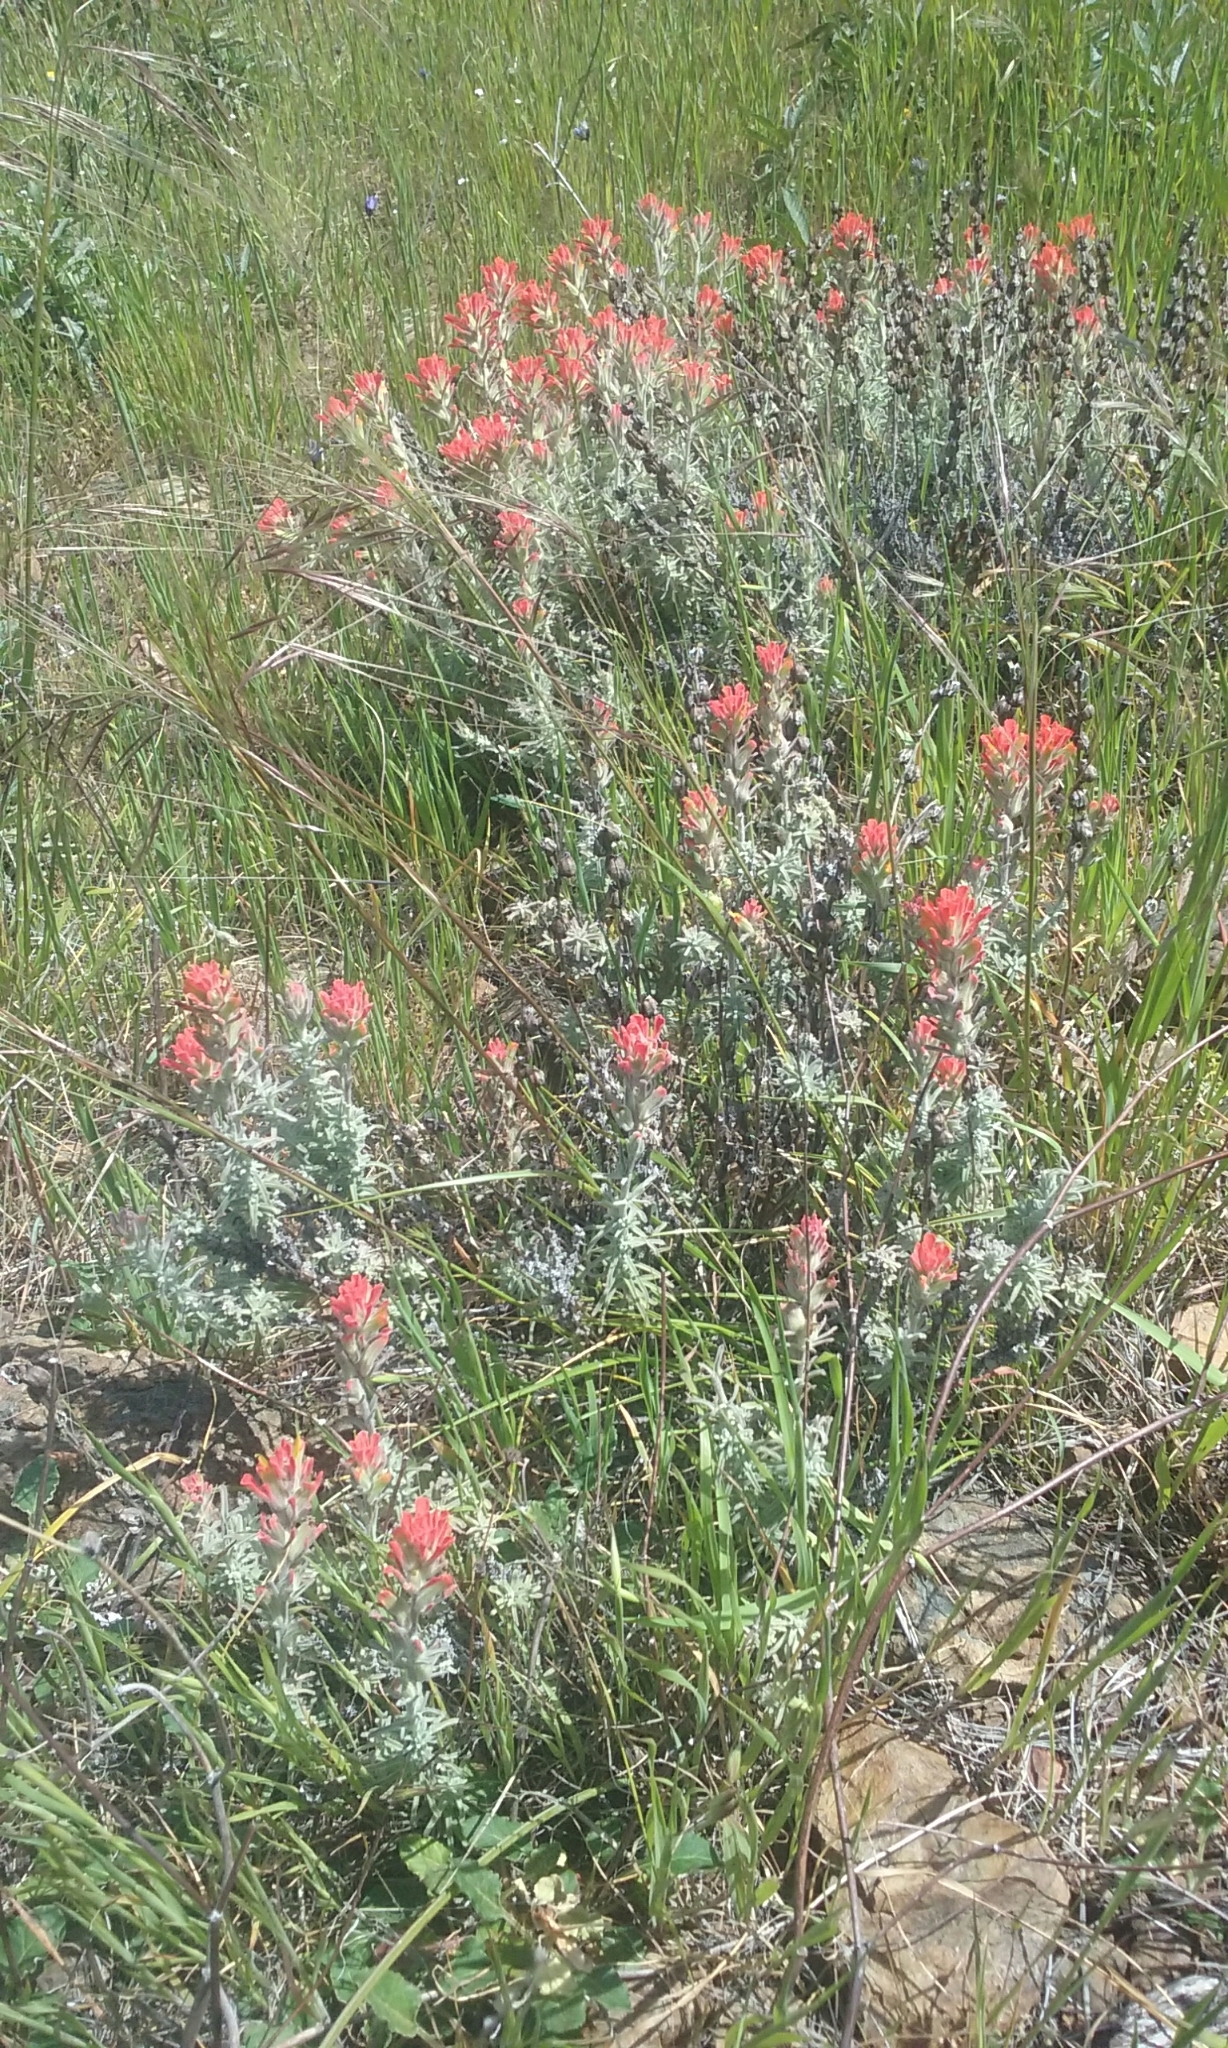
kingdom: Plantae
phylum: Tracheophyta
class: Magnoliopsida
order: Lamiales
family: Orobanchaceae
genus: Castilleja
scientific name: Castilleja foliolosa
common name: Woolly indian paintbrush
